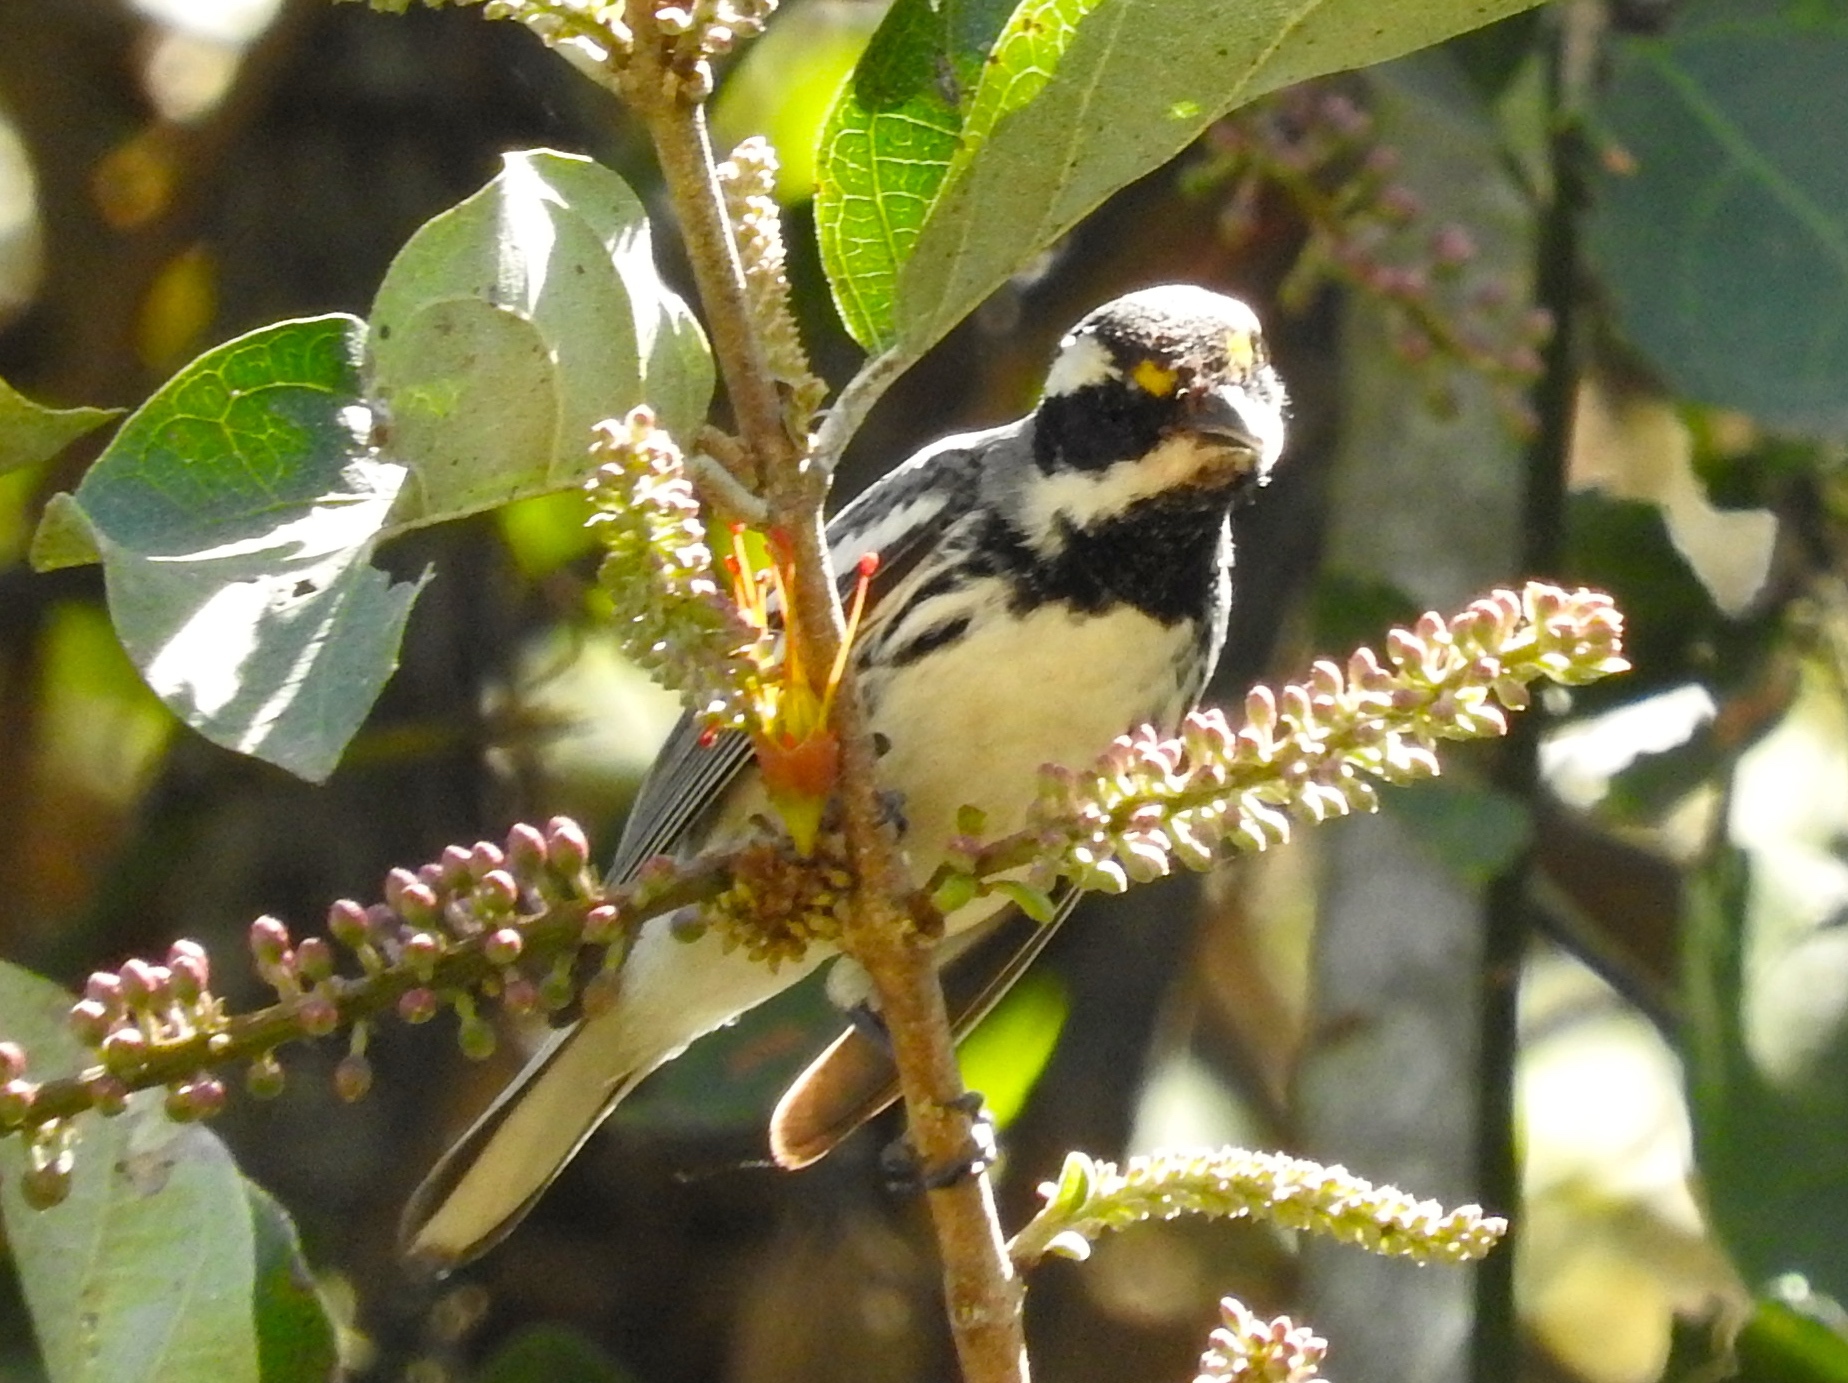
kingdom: Animalia
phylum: Chordata
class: Aves
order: Passeriformes
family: Parulidae
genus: Setophaga
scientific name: Setophaga nigrescens
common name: Black-throated gray warbler
